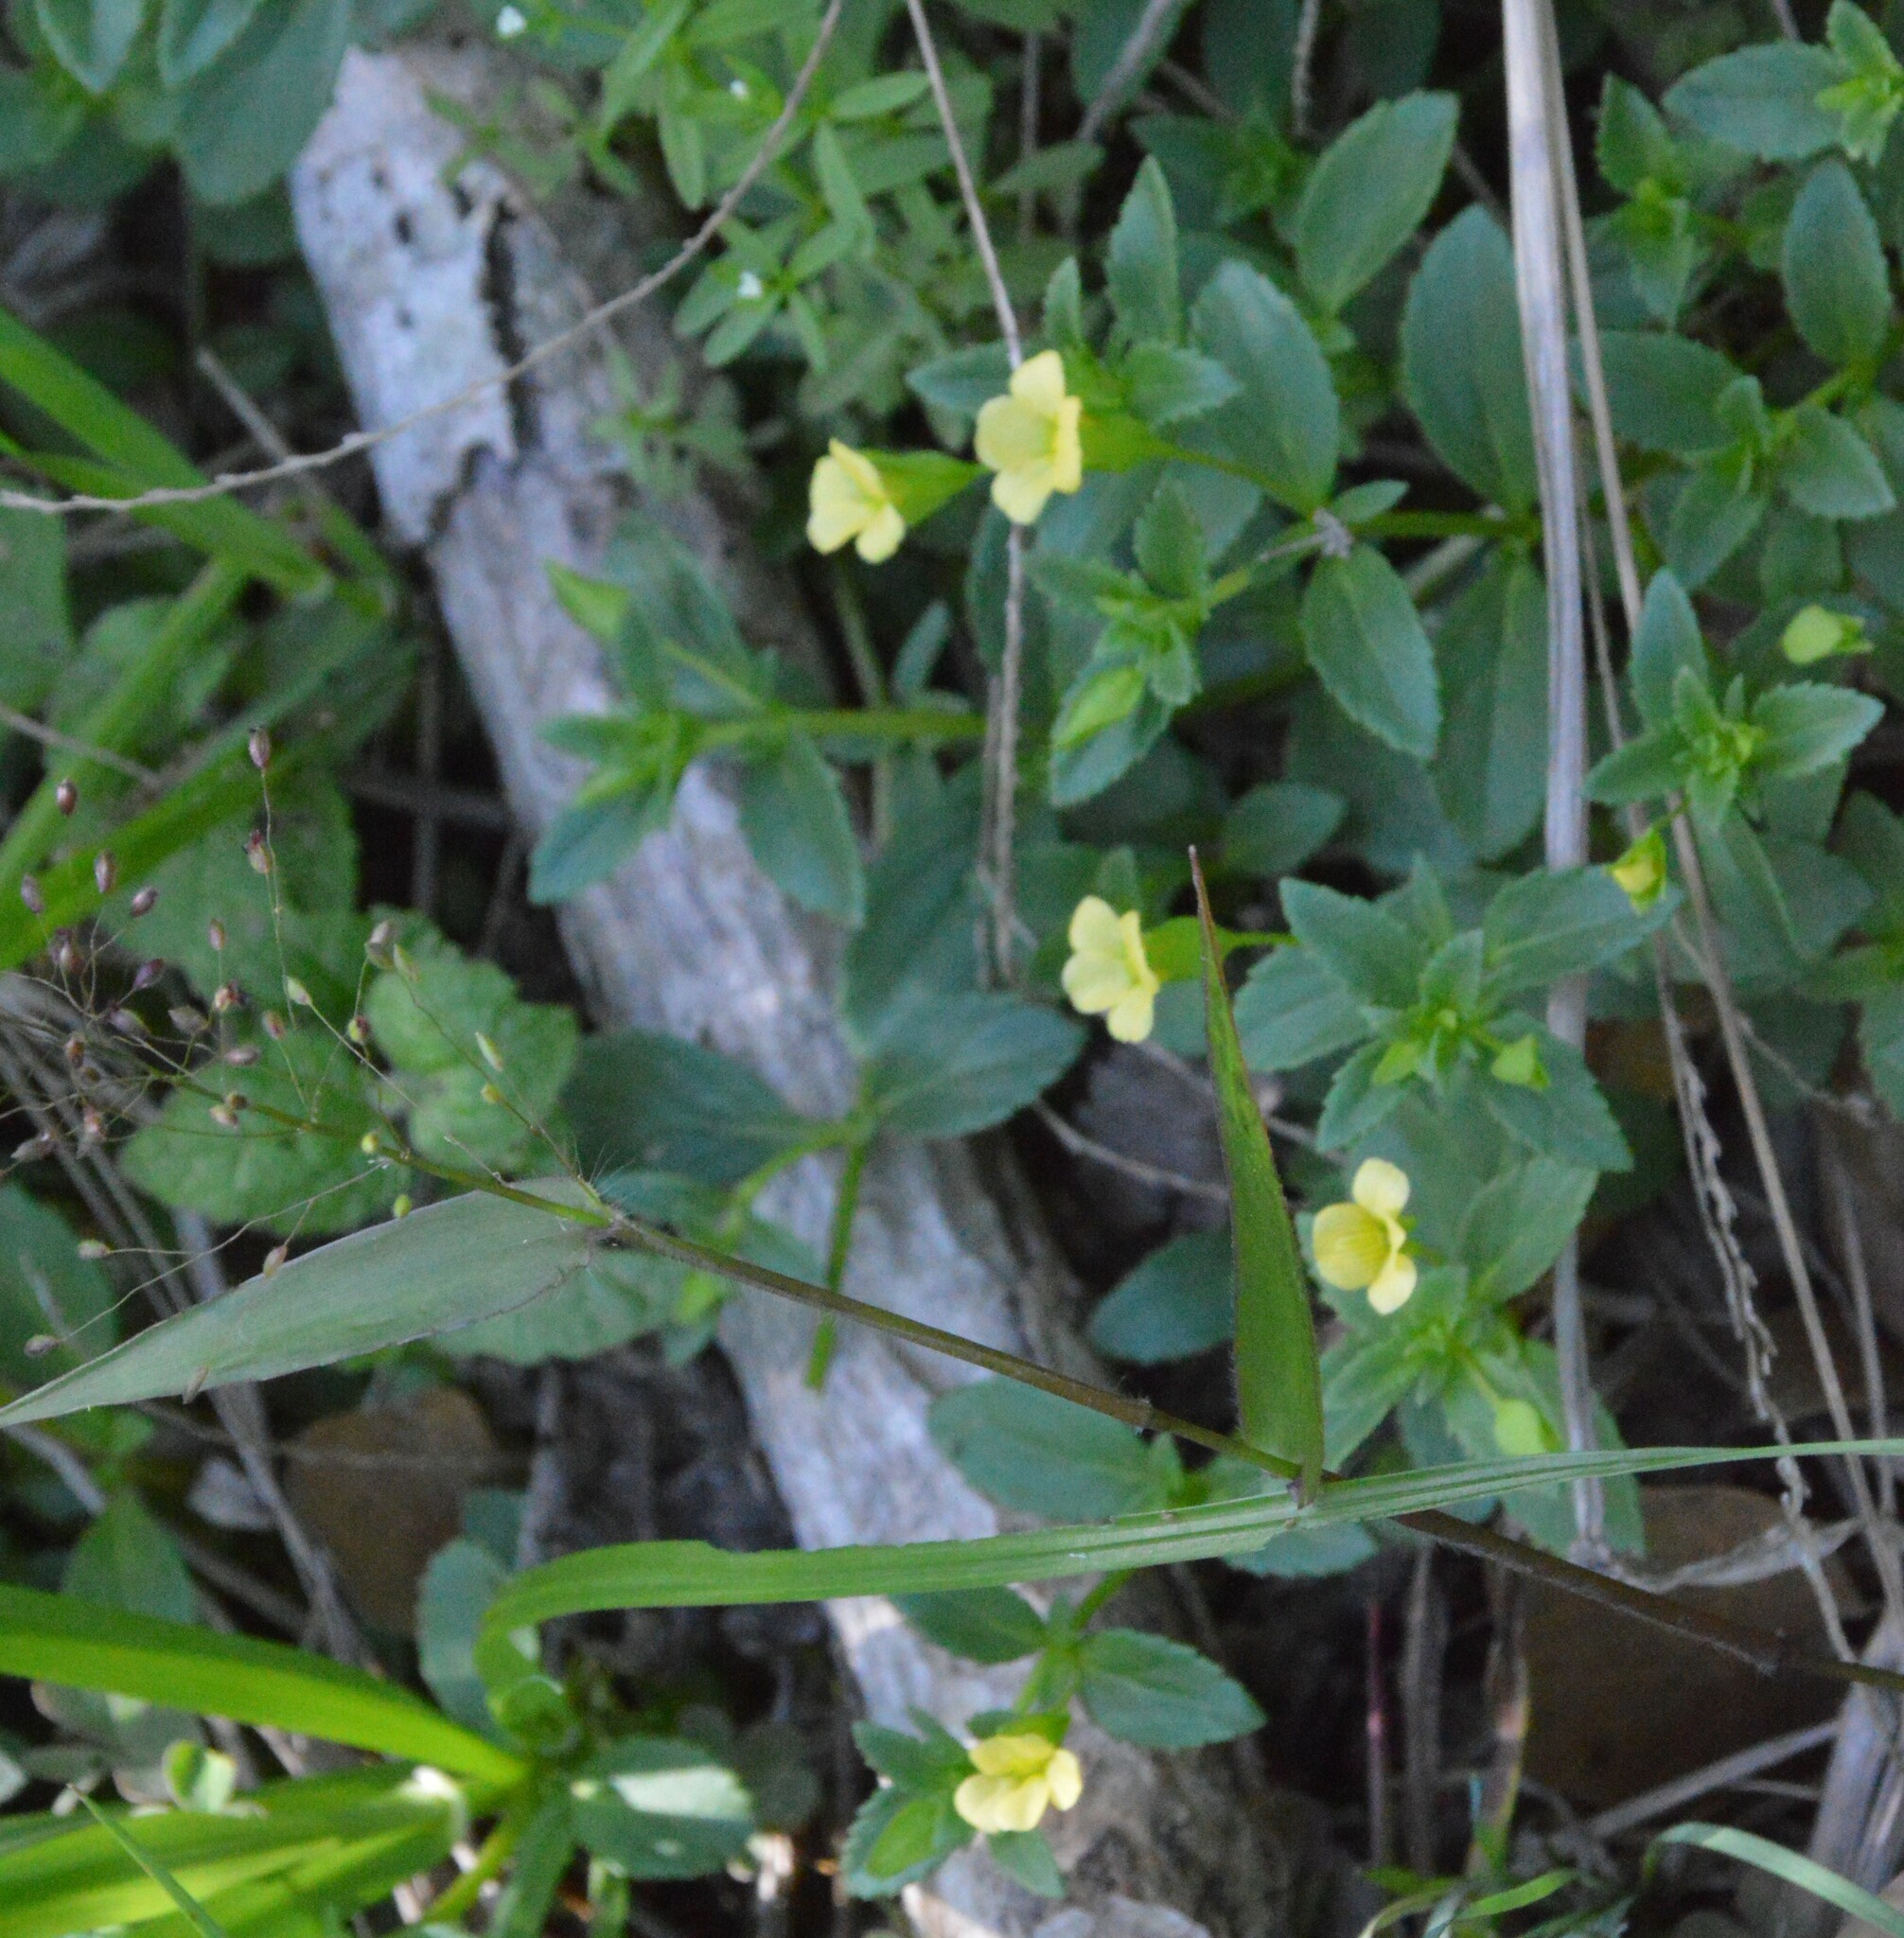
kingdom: Plantae
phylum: Tracheophyta
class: Magnoliopsida
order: Lamiales
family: Plantaginaceae
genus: Mecardonia
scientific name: Mecardonia procumbens
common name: Baby jump-up
